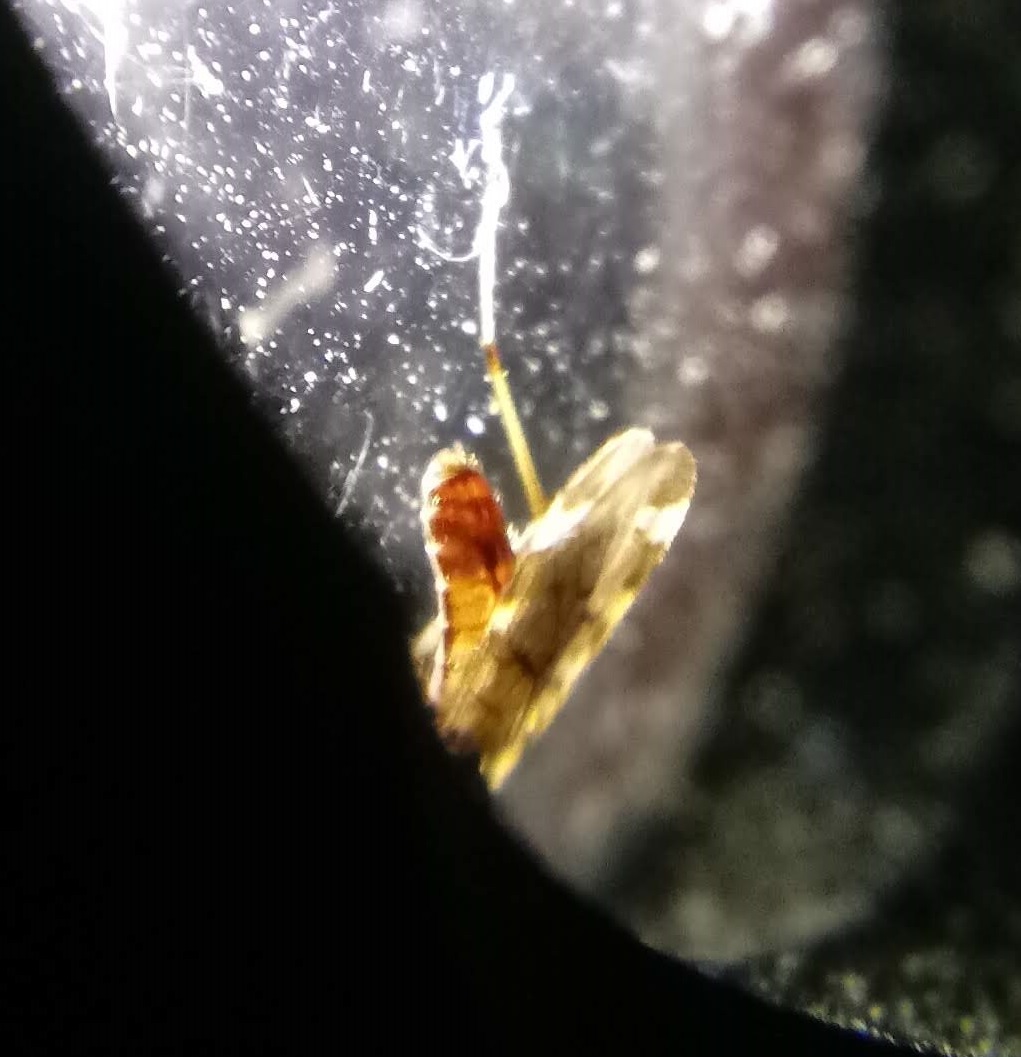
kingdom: Animalia
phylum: Arthropoda
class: Insecta
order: Diptera
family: Anisopodidae
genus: Sylvicola
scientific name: Sylvicola alternata
